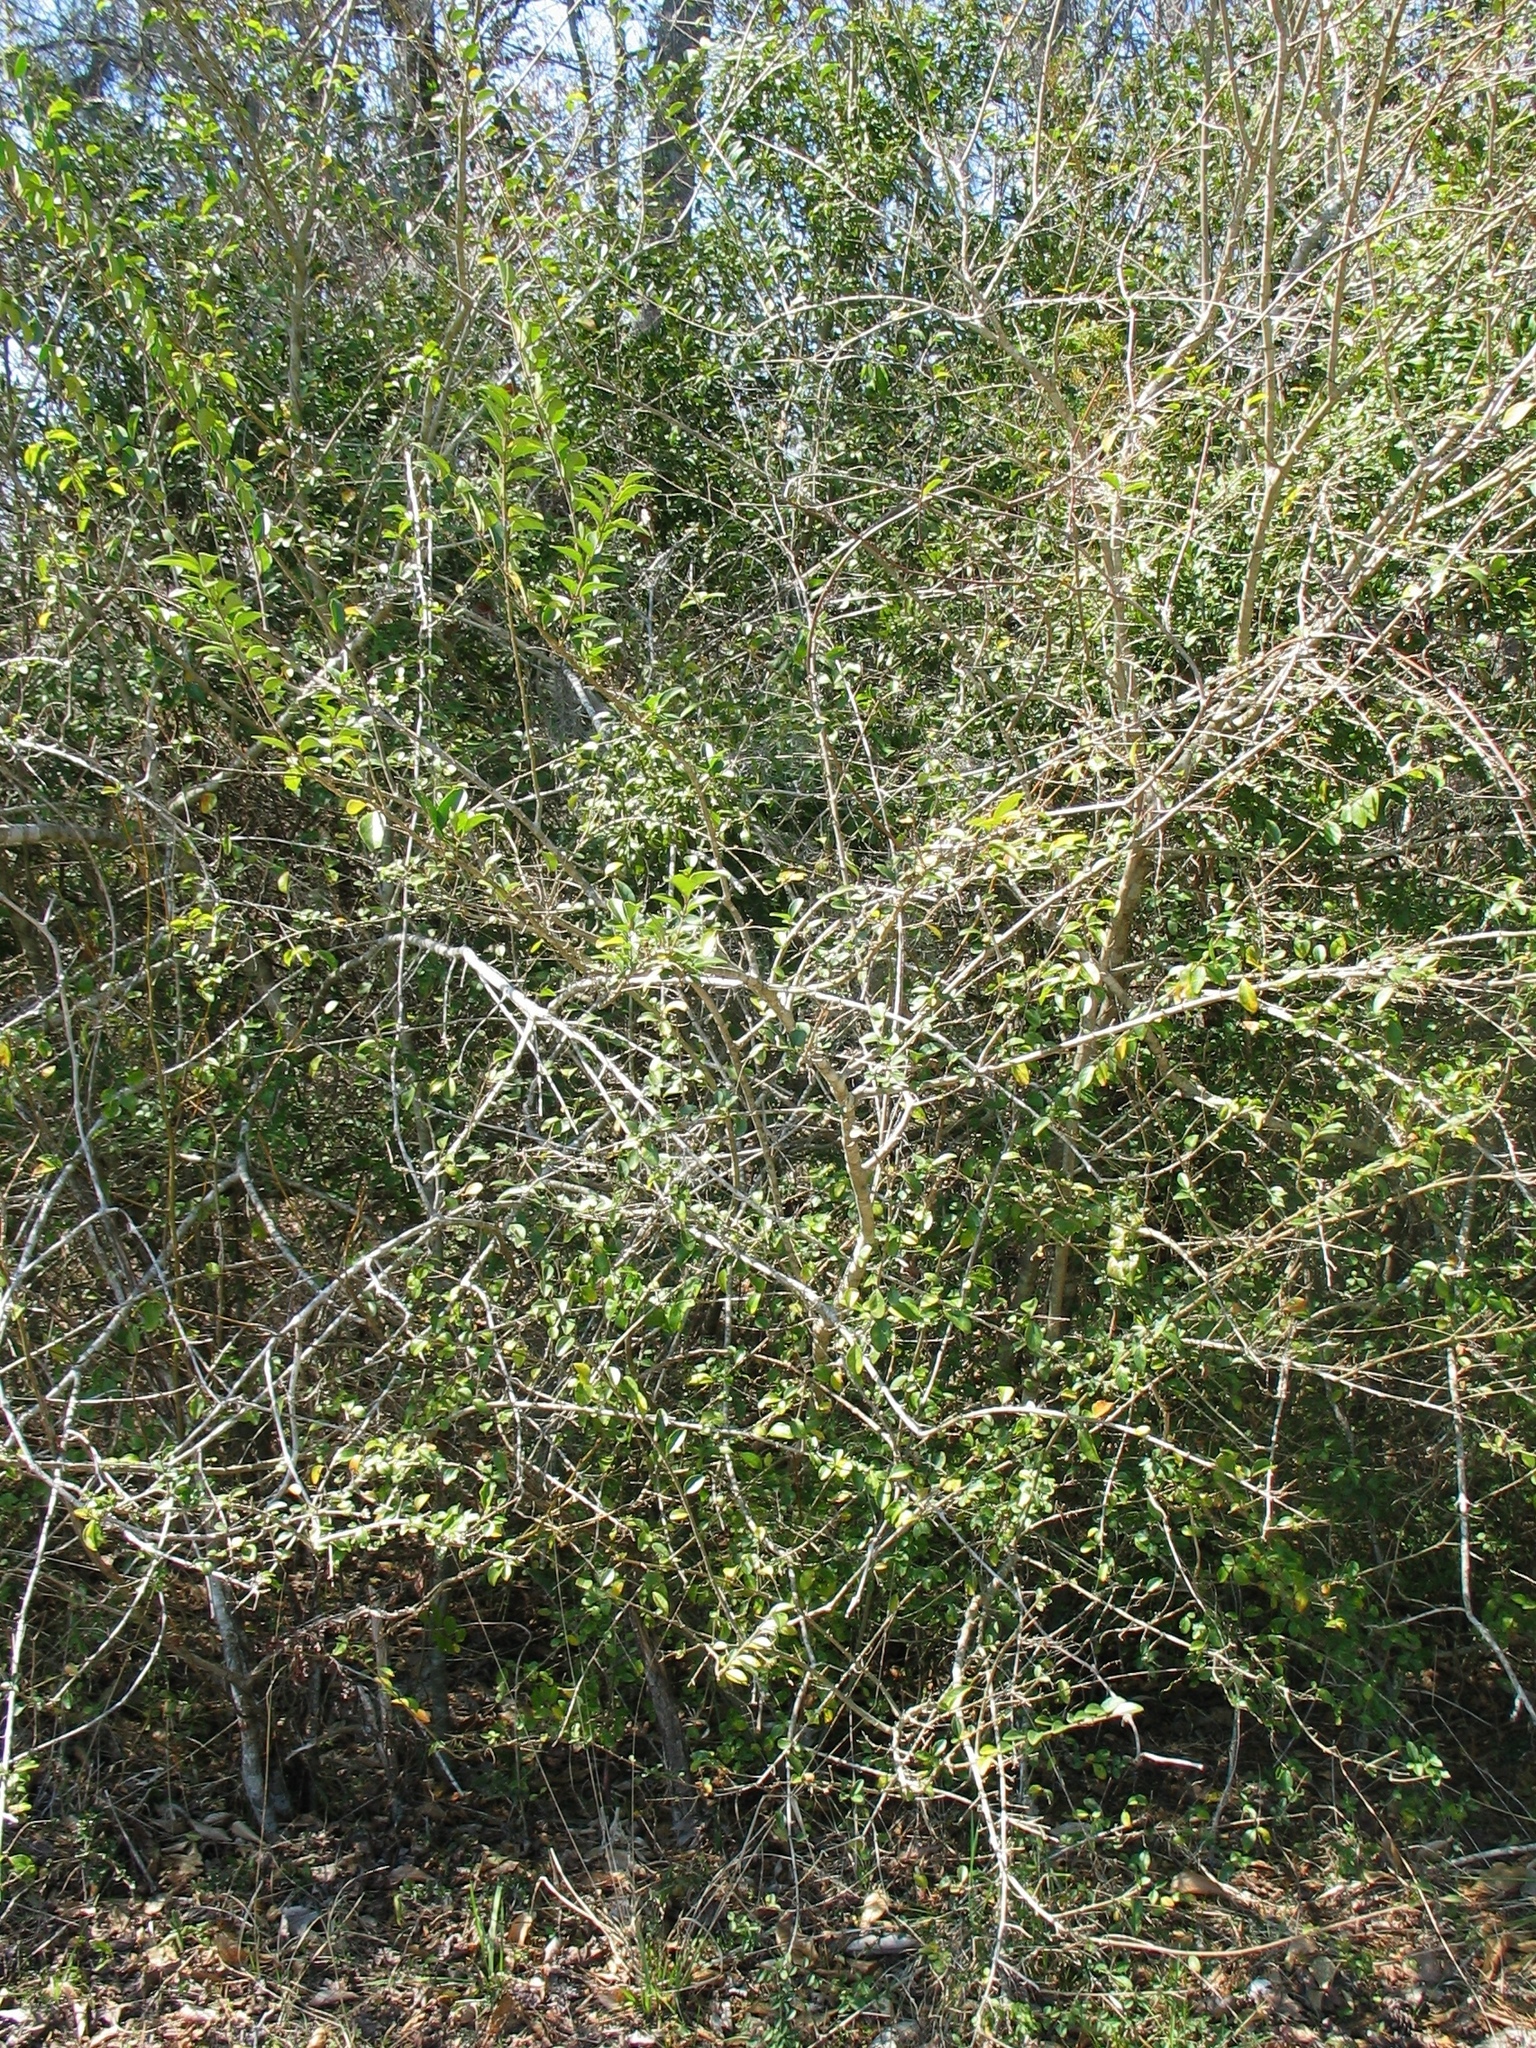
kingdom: Plantae
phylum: Tracheophyta
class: Magnoliopsida
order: Lamiales
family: Oleaceae
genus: Ligustrum
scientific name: Ligustrum sinense
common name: Chinese privet
